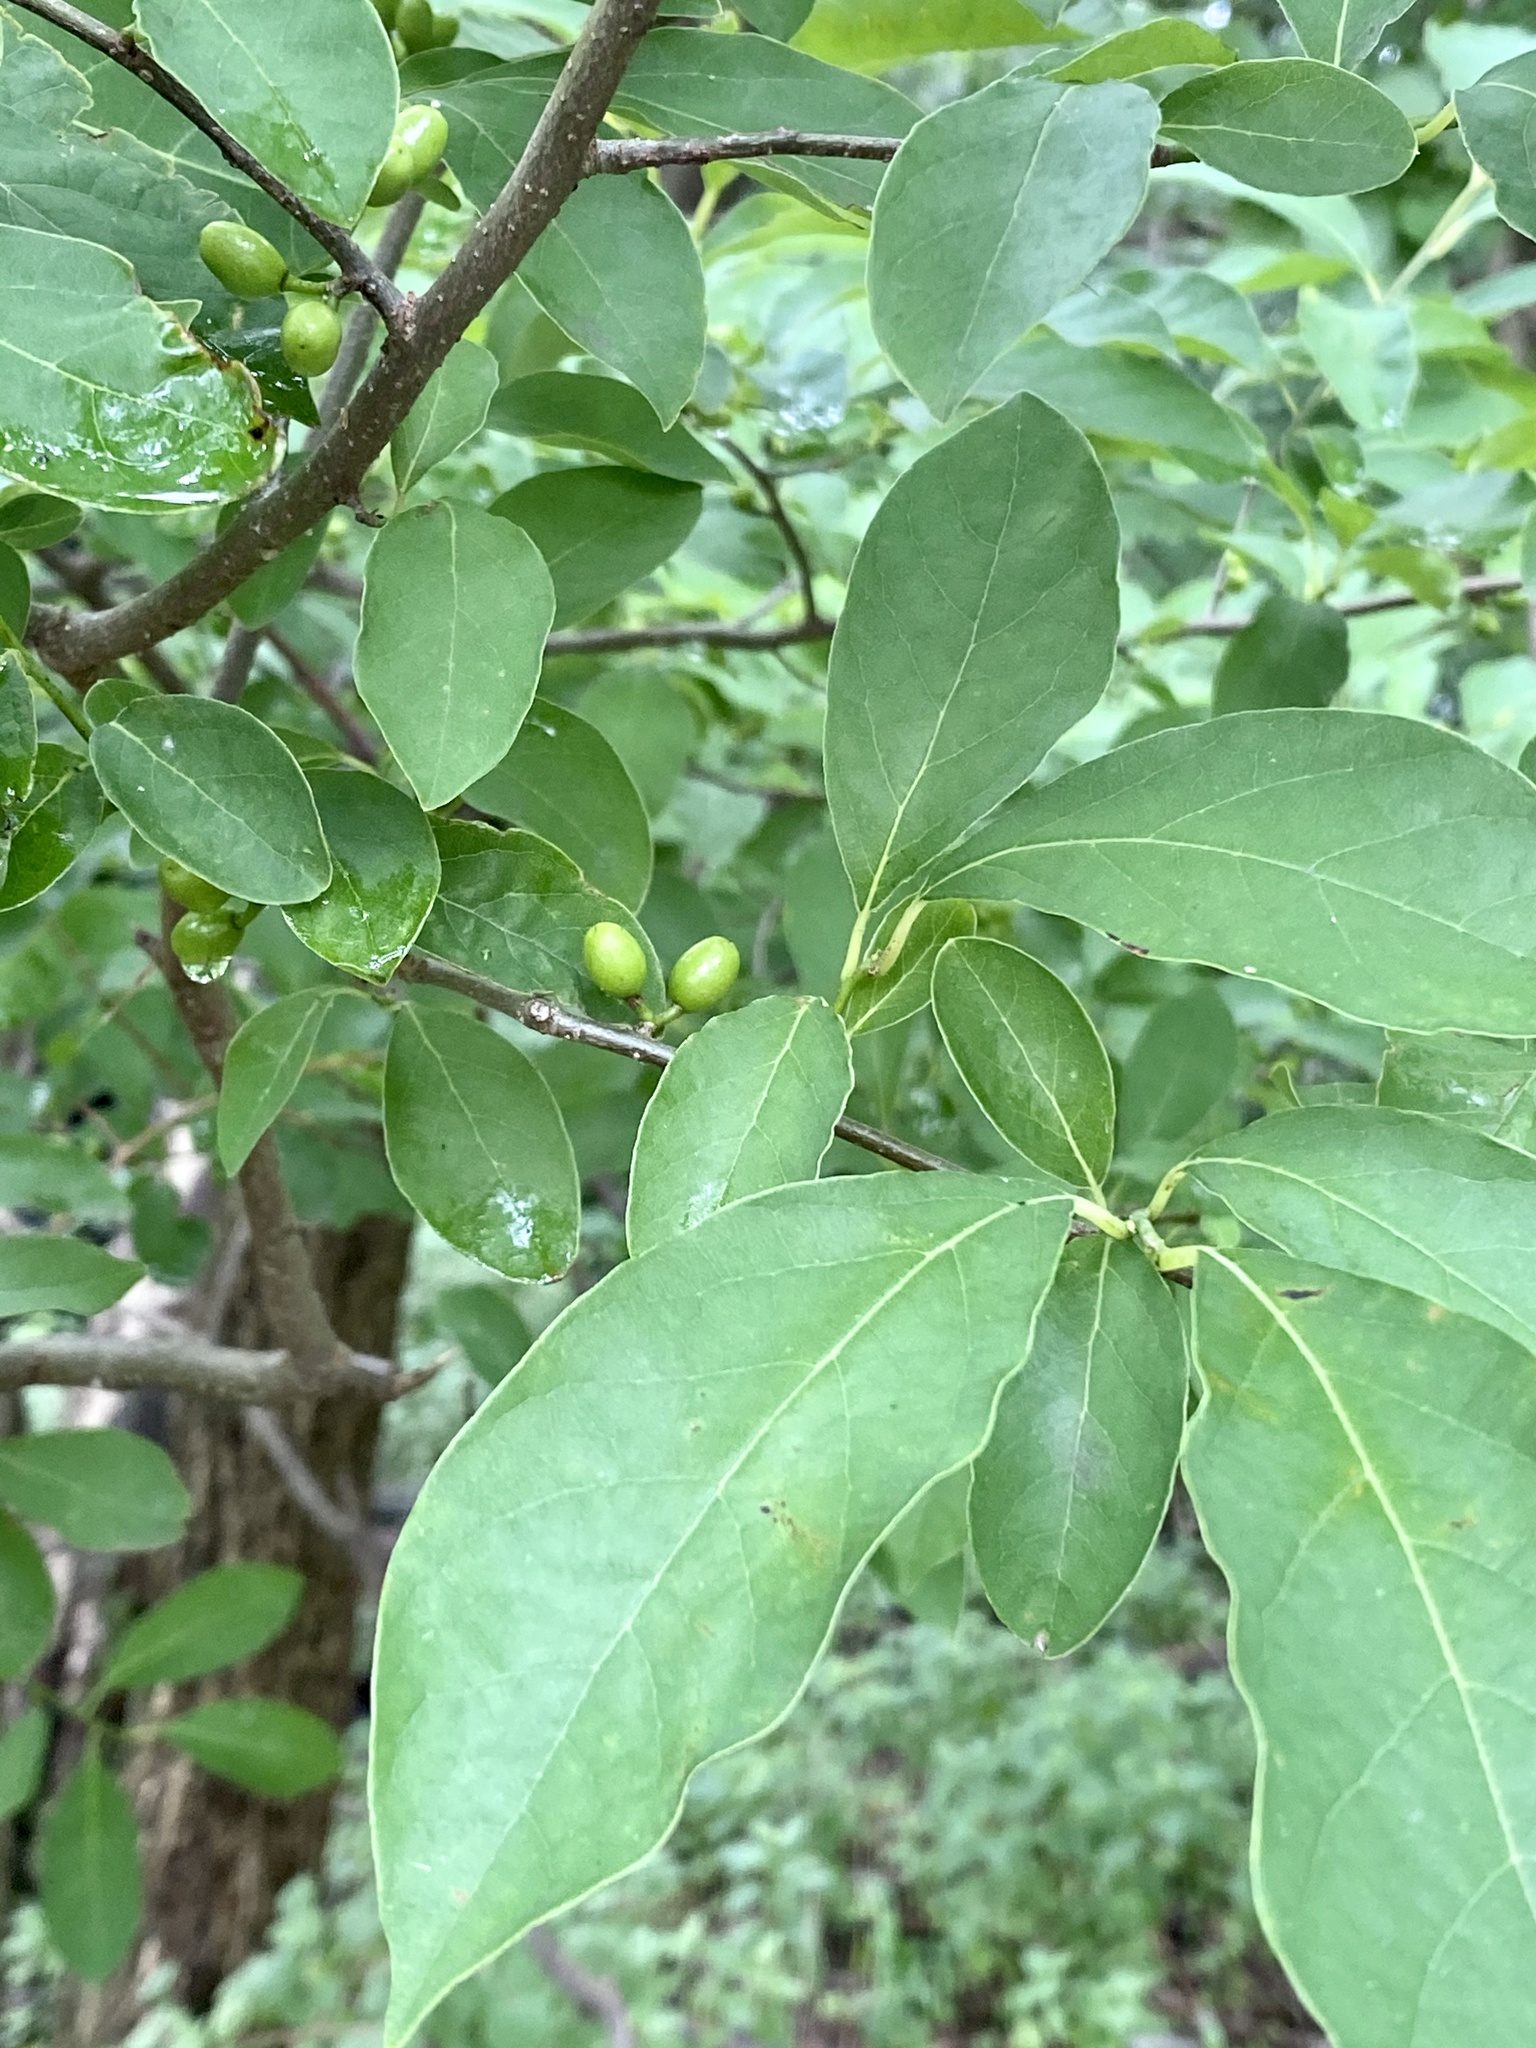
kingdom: Plantae
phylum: Tracheophyta
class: Magnoliopsida
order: Laurales
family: Lauraceae
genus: Lindera
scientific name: Lindera benzoin
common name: Spicebush
